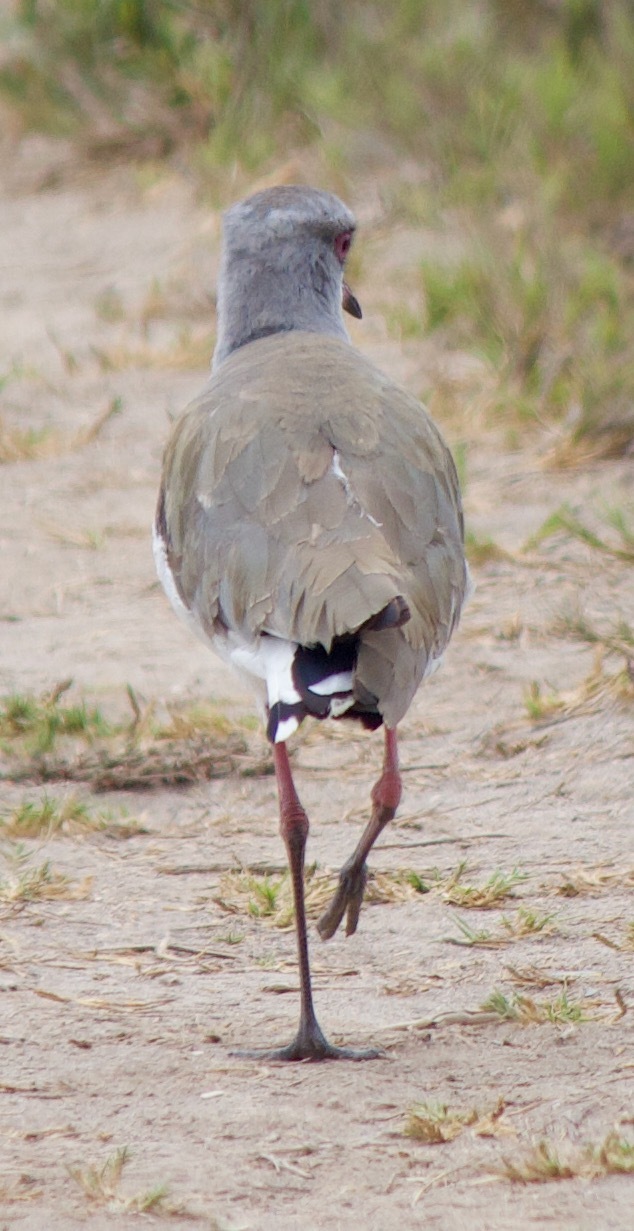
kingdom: Animalia
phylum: Chordata
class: Aves
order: Charadriiformes
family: Charadriidae
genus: Vanellus
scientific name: Vanellus chilensis
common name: Southern lapwing
